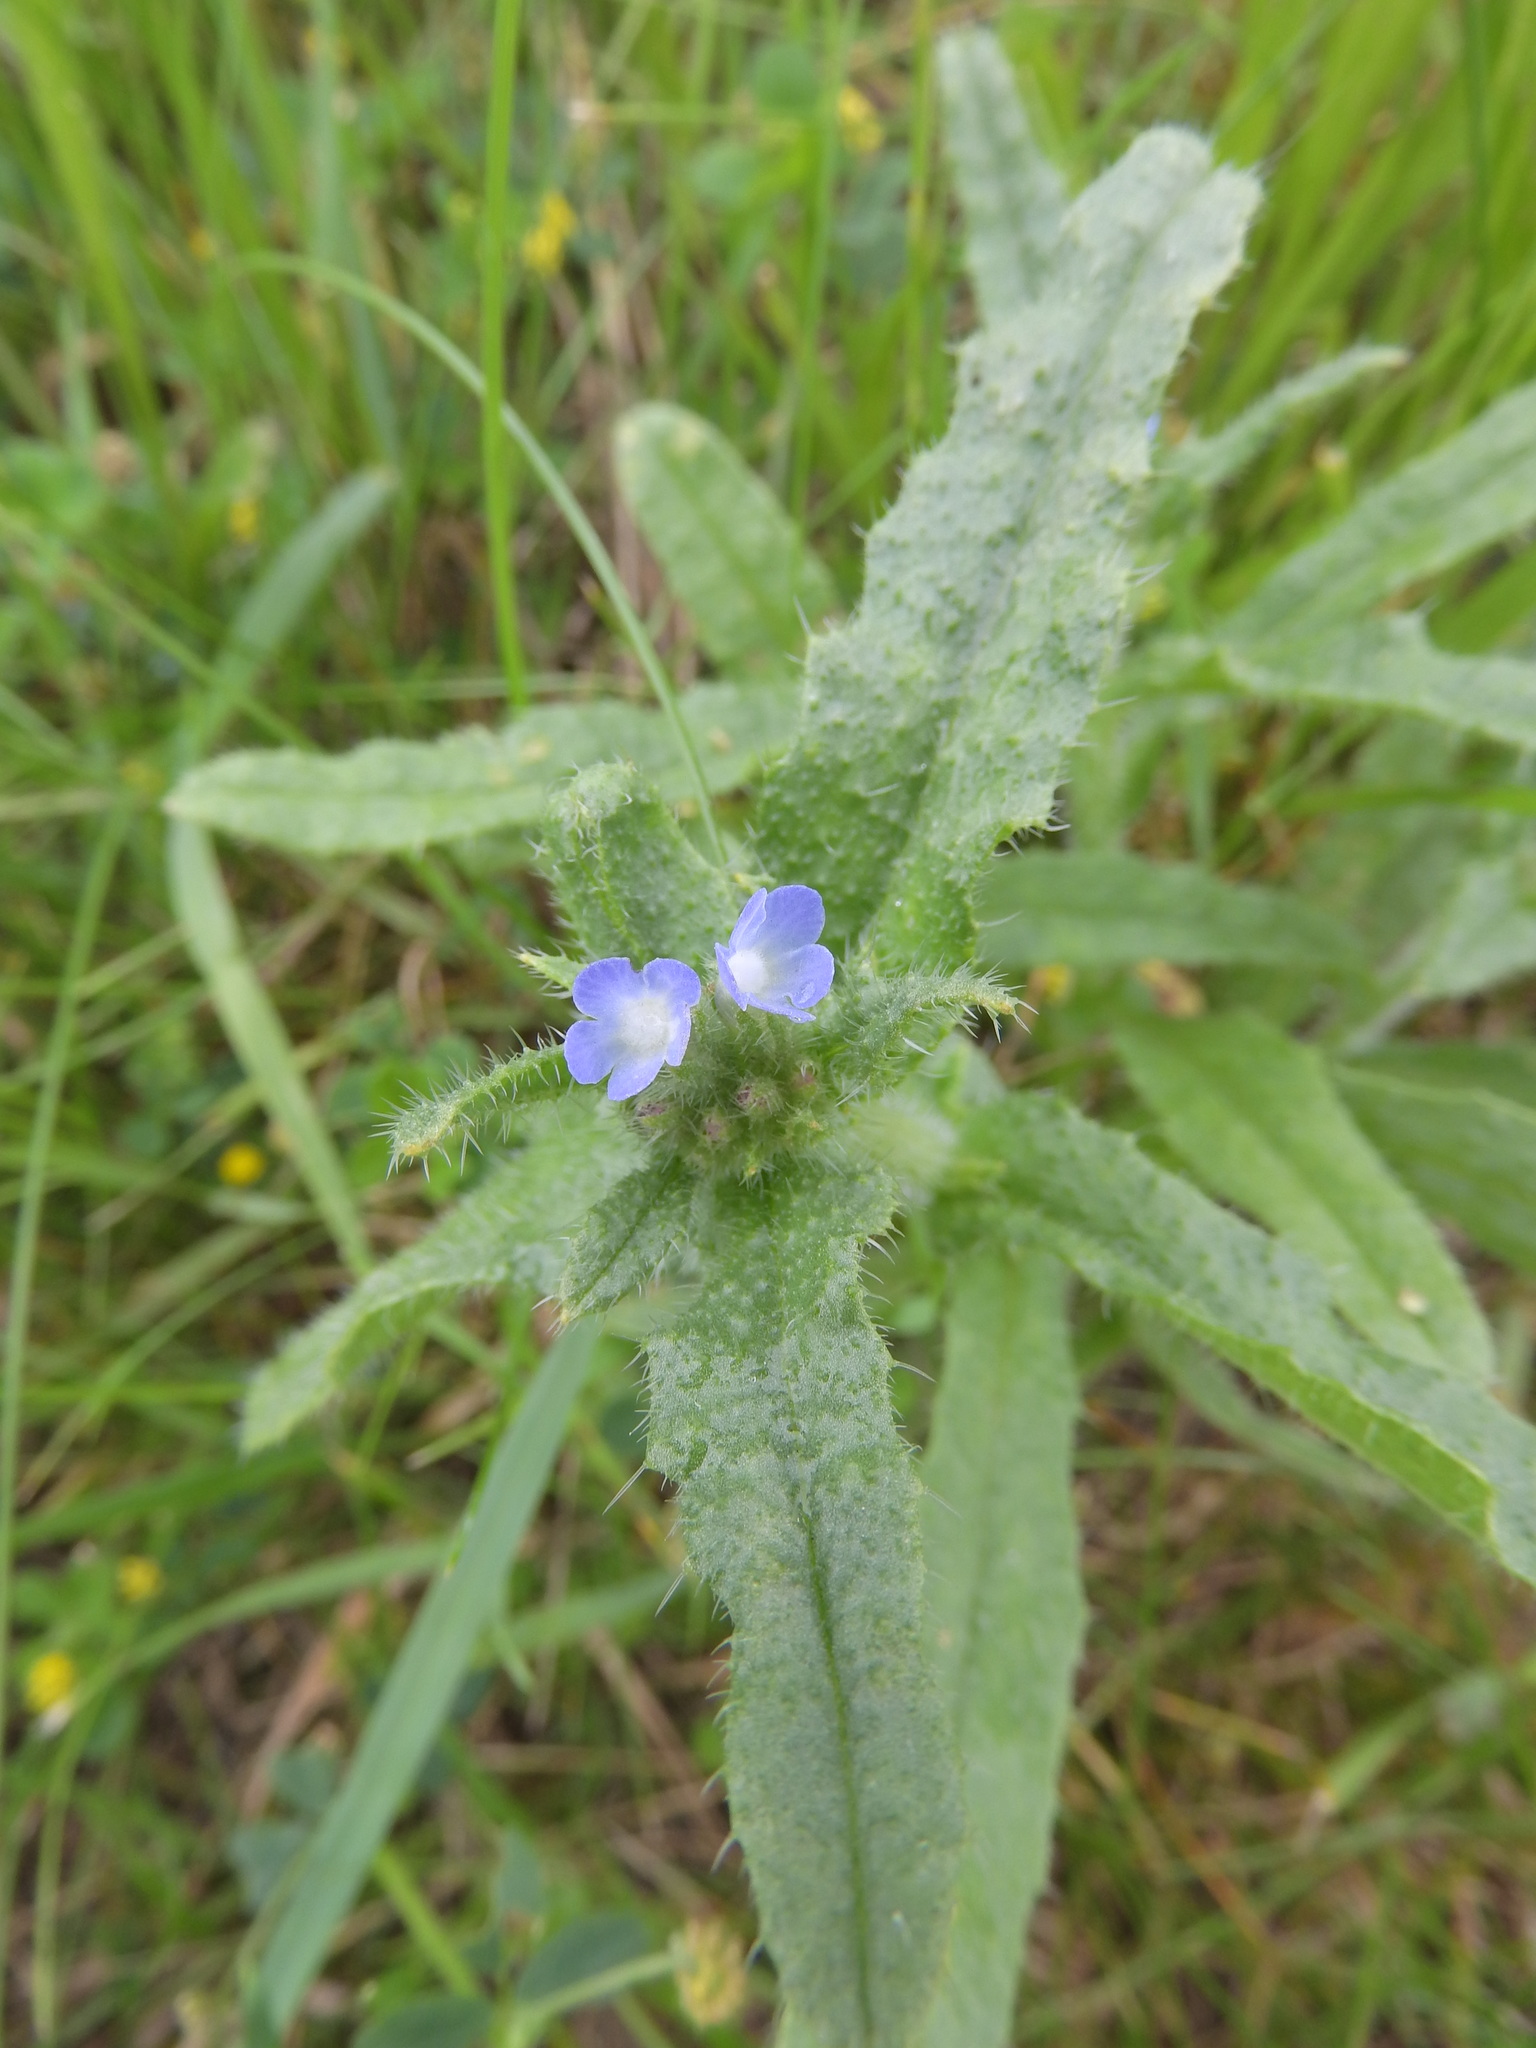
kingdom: Plantae
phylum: Tracheophyta
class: Magnoliopsida
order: Boraginales
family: Boraginaceae
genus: Lycopsis
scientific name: Lycopsis arvensis
